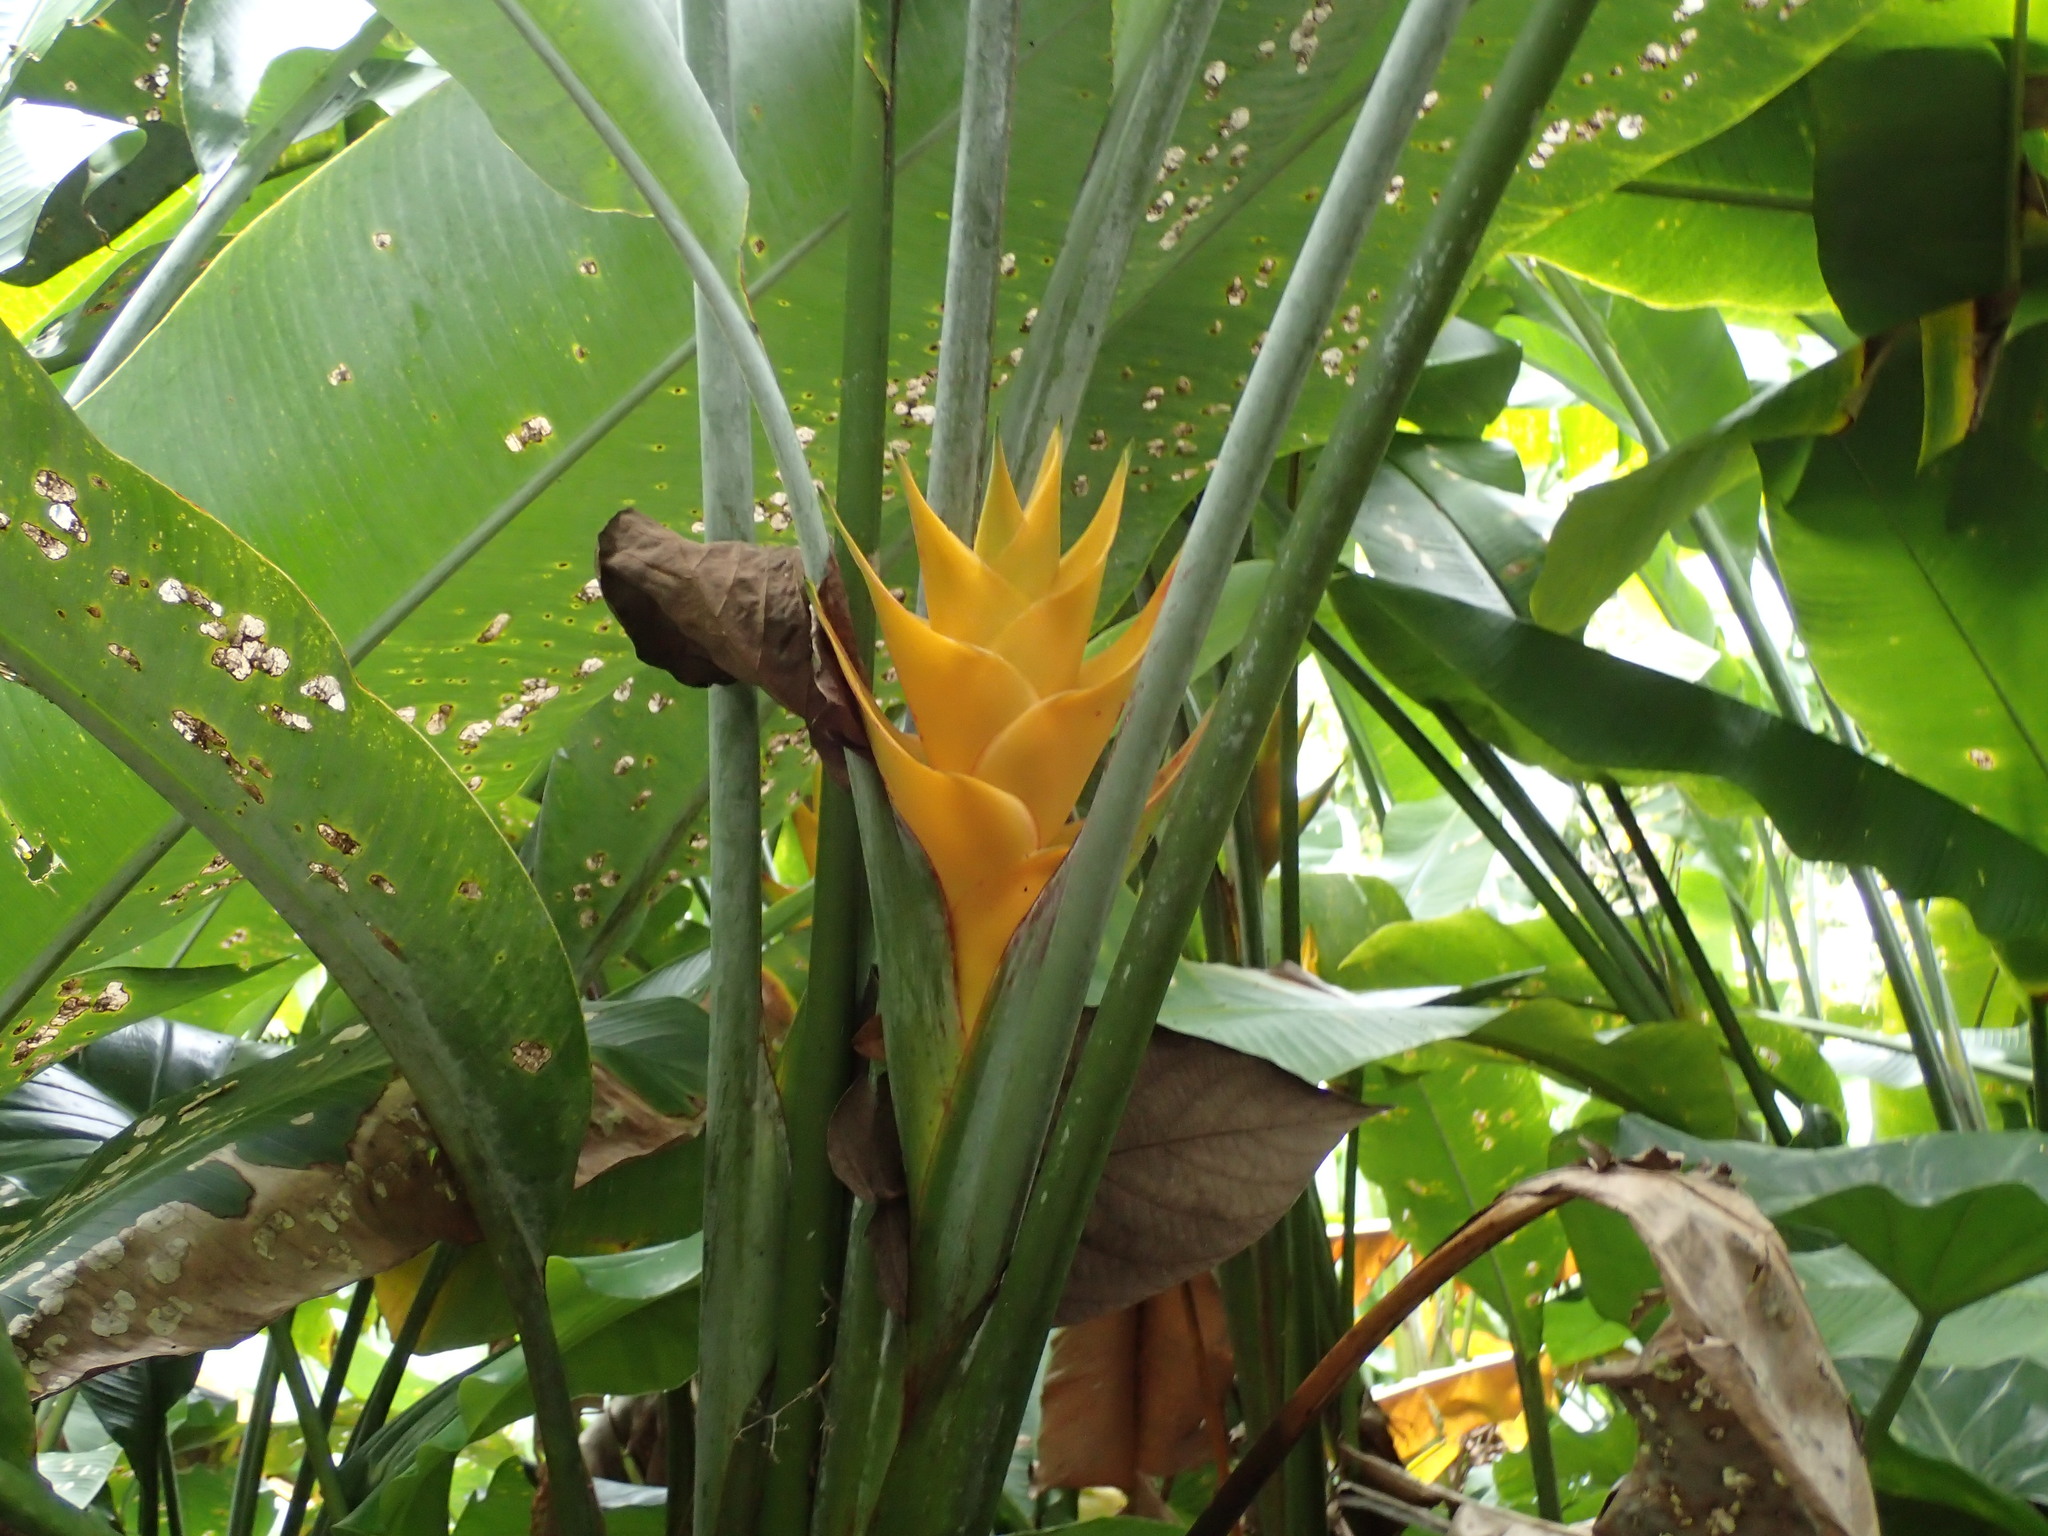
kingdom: Plantae
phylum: Tracheophyta
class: Liliopsida
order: Zingiberales
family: Heliconiaceae
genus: Heliconia
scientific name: Heliconia caribaea
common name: Wild plantain
